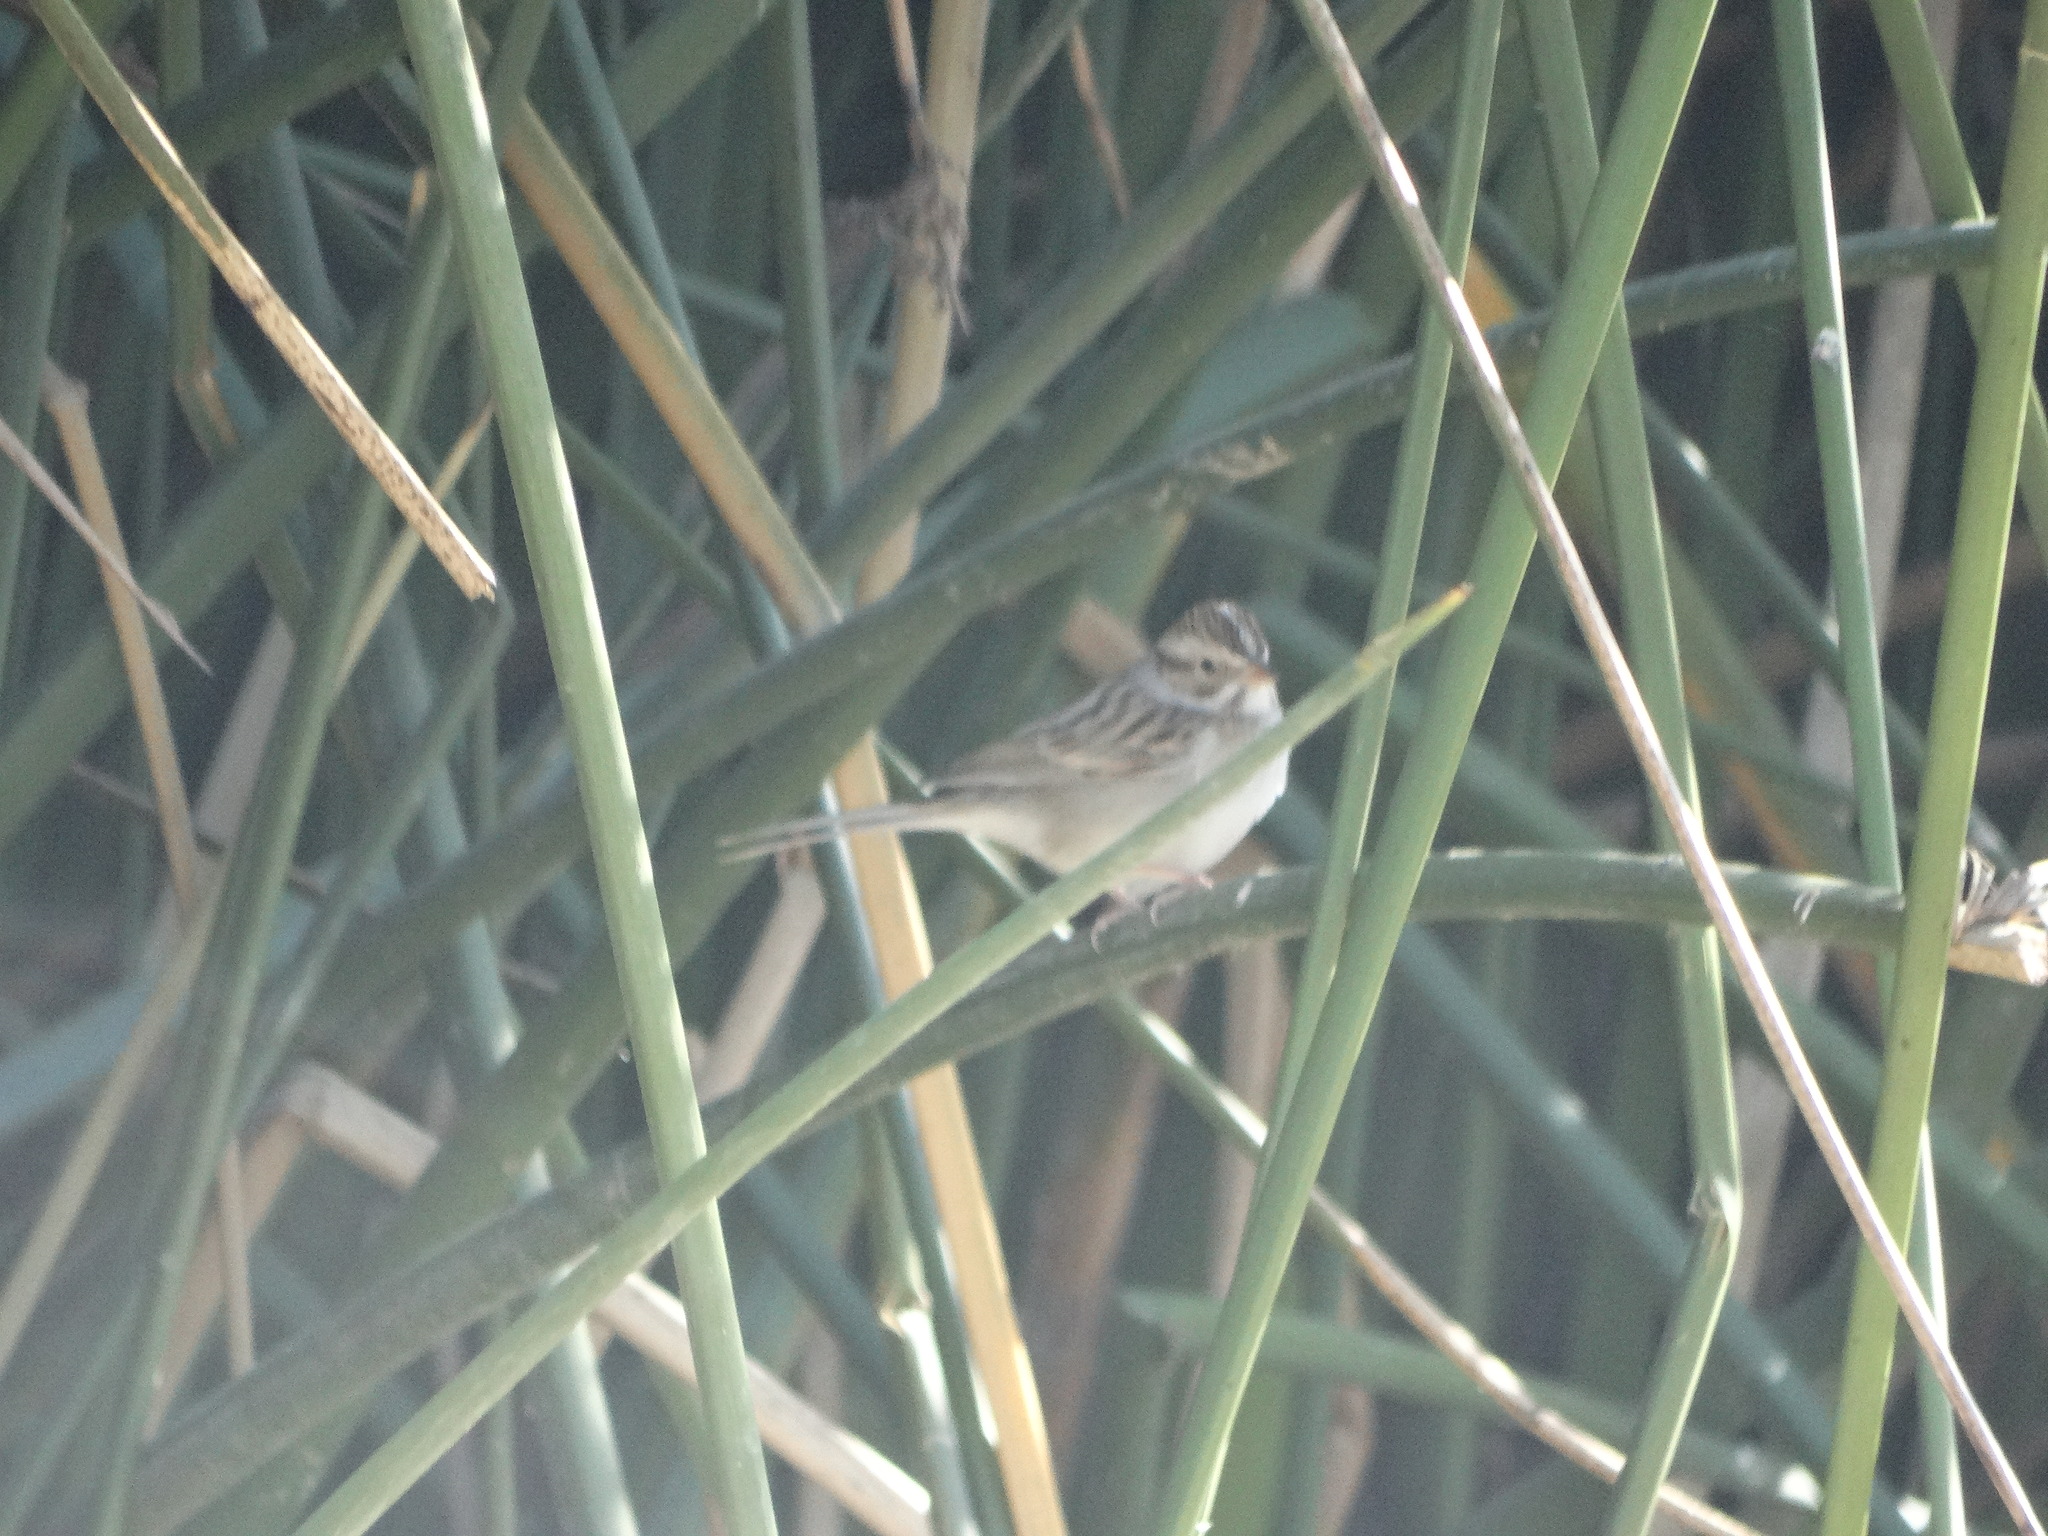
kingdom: Animalia
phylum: Chordata
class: Aves
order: Passeriformes
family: Passerellidae
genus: Spizella
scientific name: Spizella pallida
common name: Clay-colored sparrow
